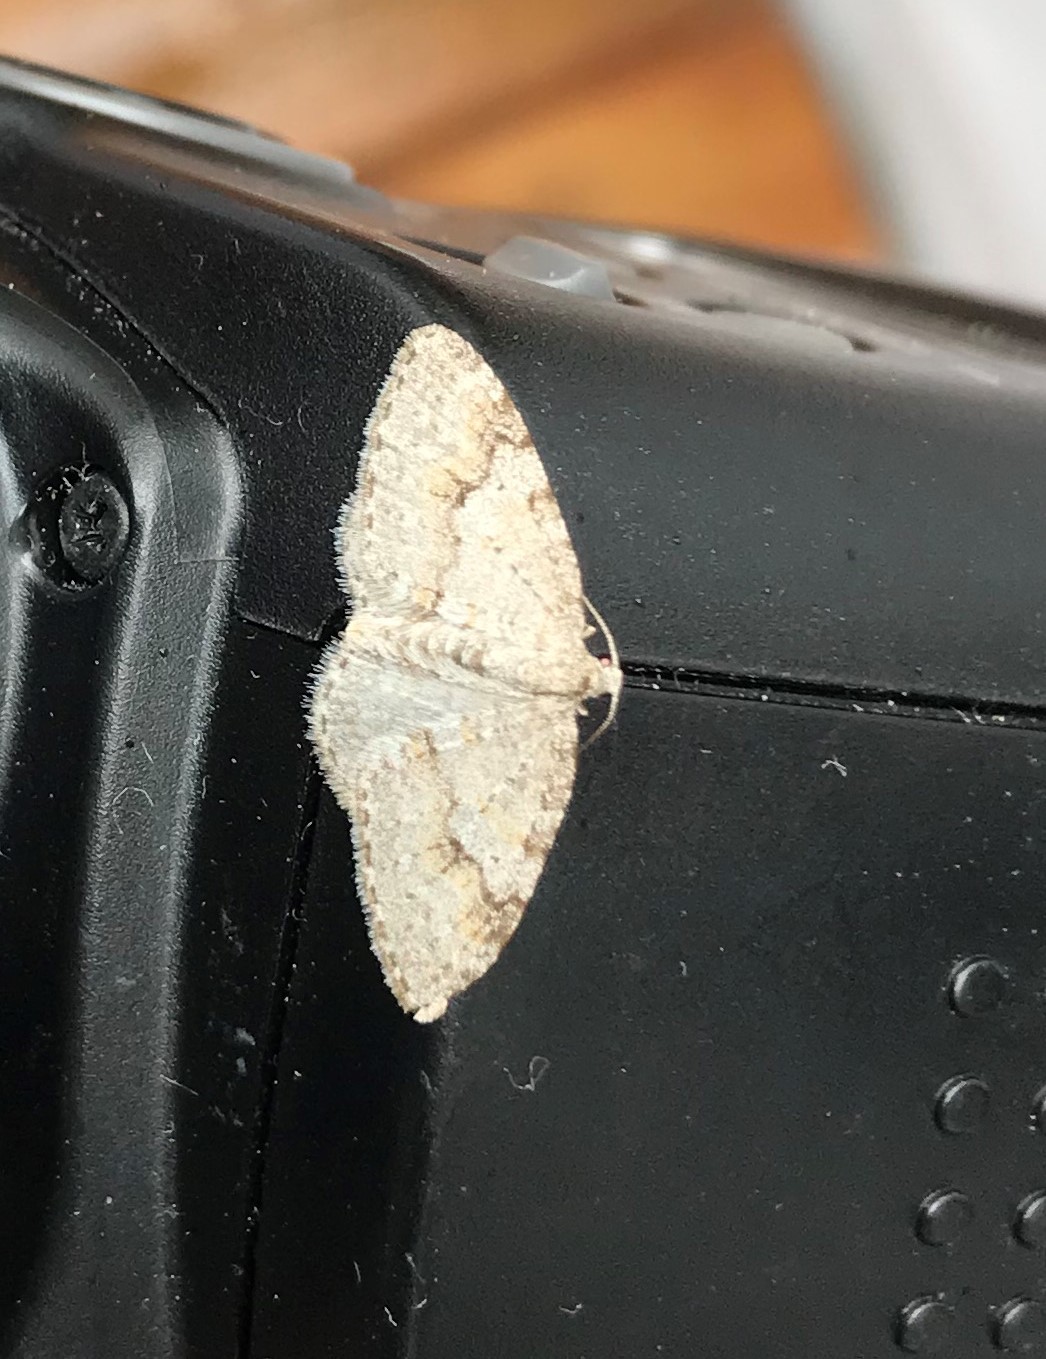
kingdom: Animalia
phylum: Arthropoda
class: Insecta
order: Lepidoptera
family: Geometridae
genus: Venusia
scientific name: Venusia comptaria
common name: Brown-shaded carpet
